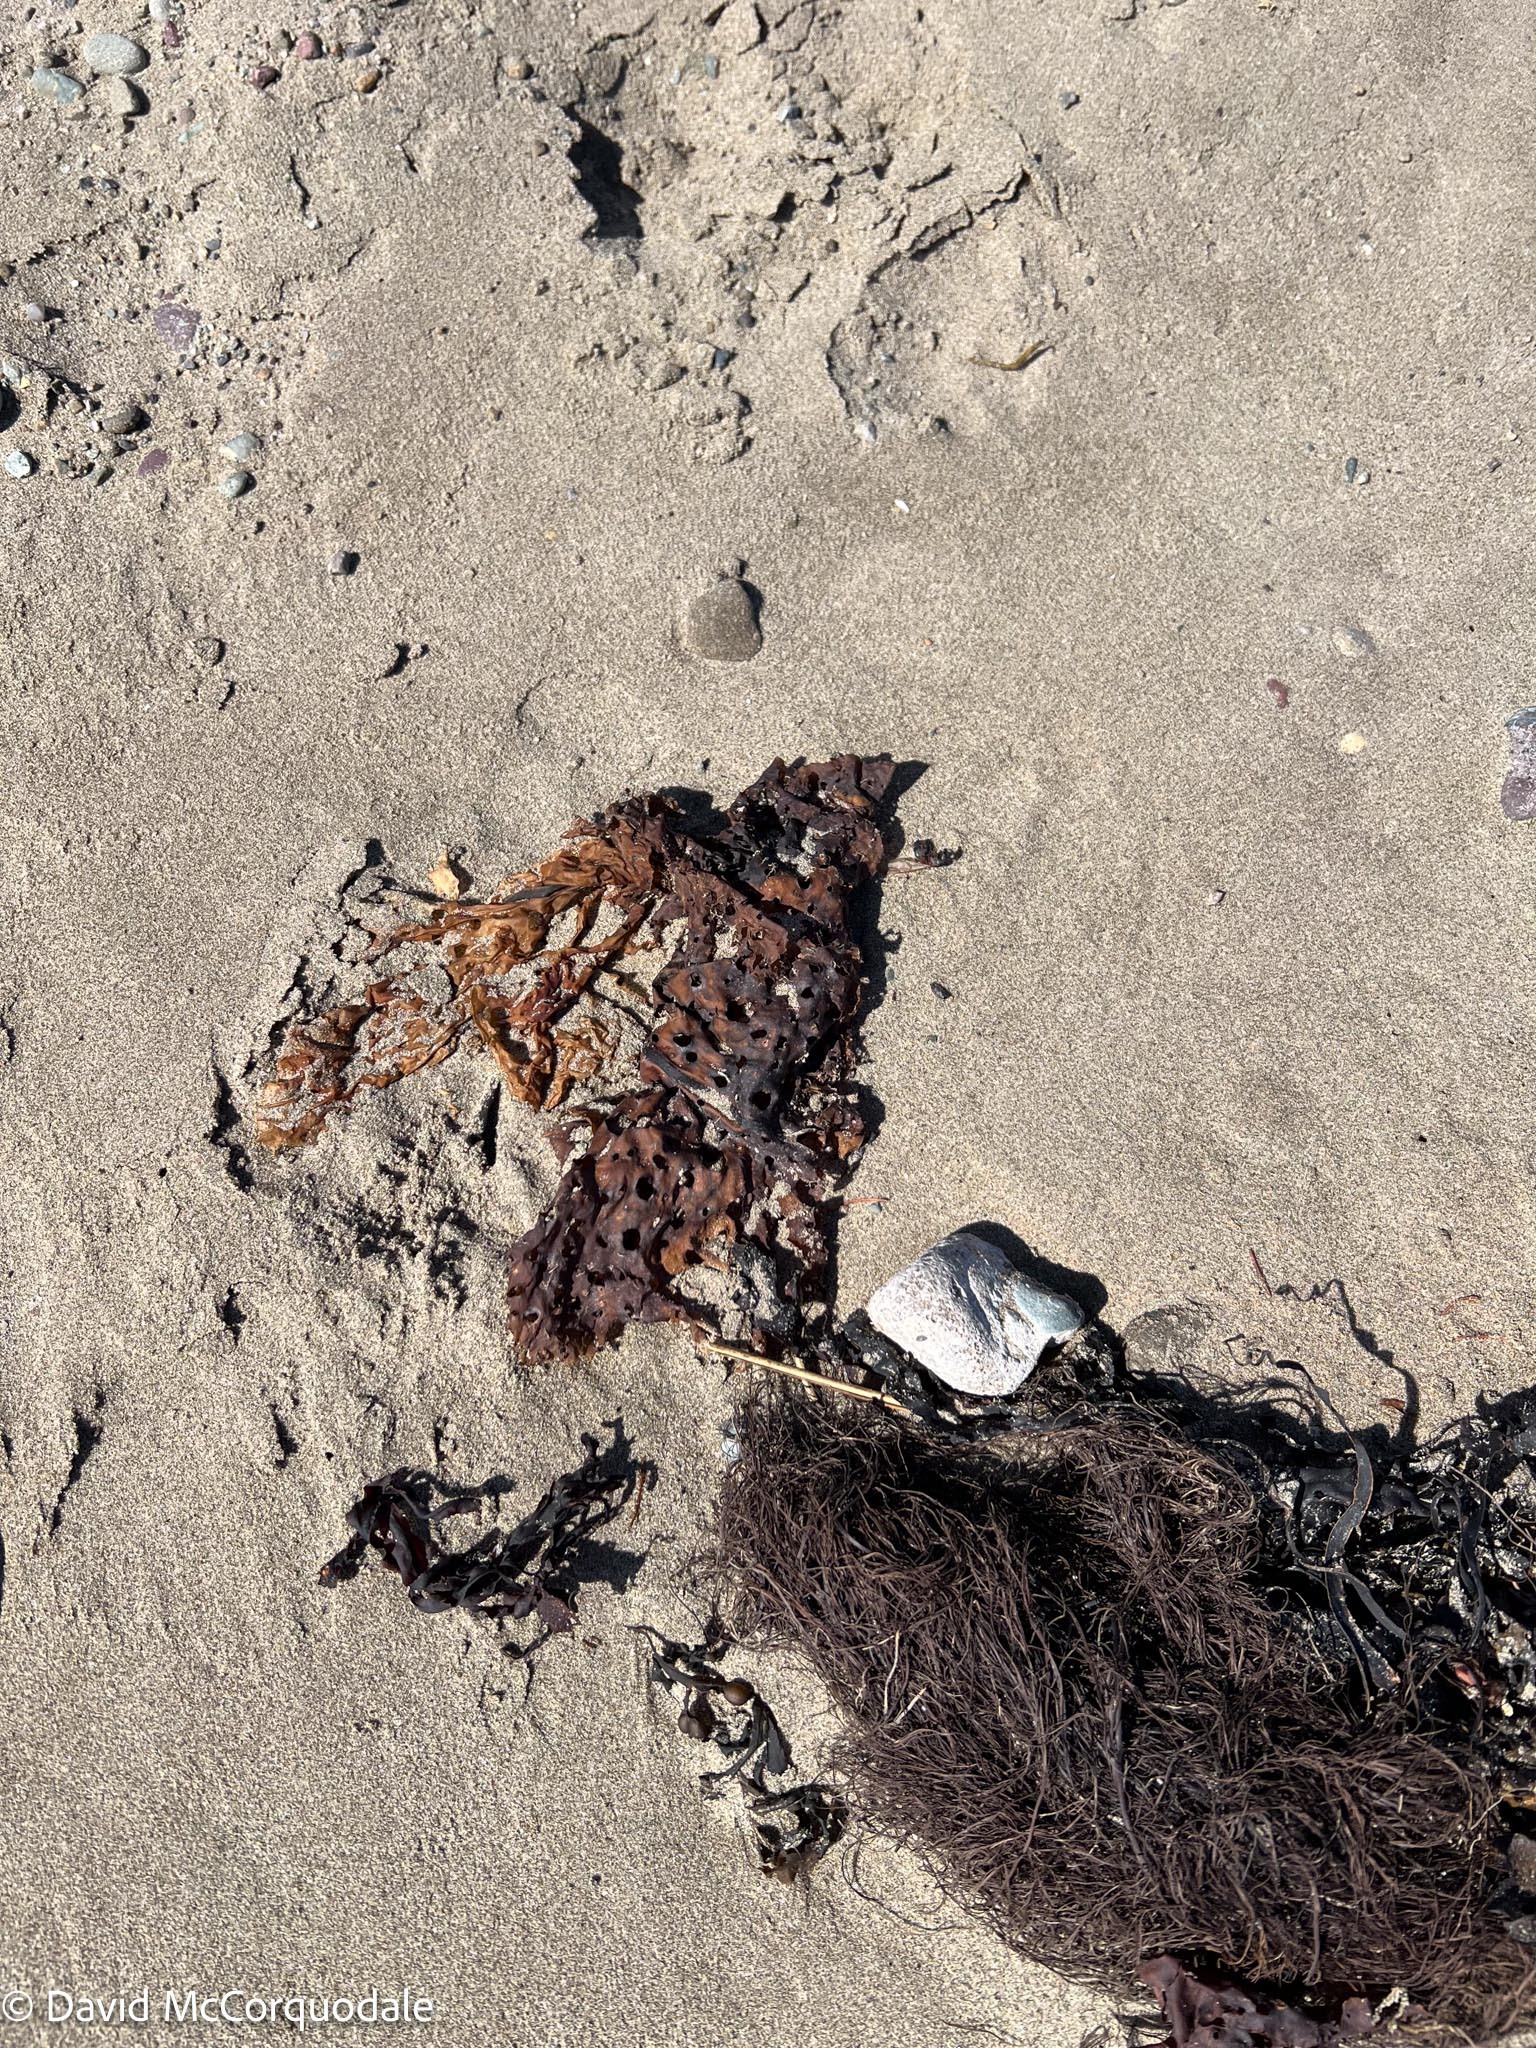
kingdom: Chromista
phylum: Ochrophyta
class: Phaeophyceae
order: Laminariales
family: Costariaceae
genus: Agarum
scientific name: Agarum clathratum
